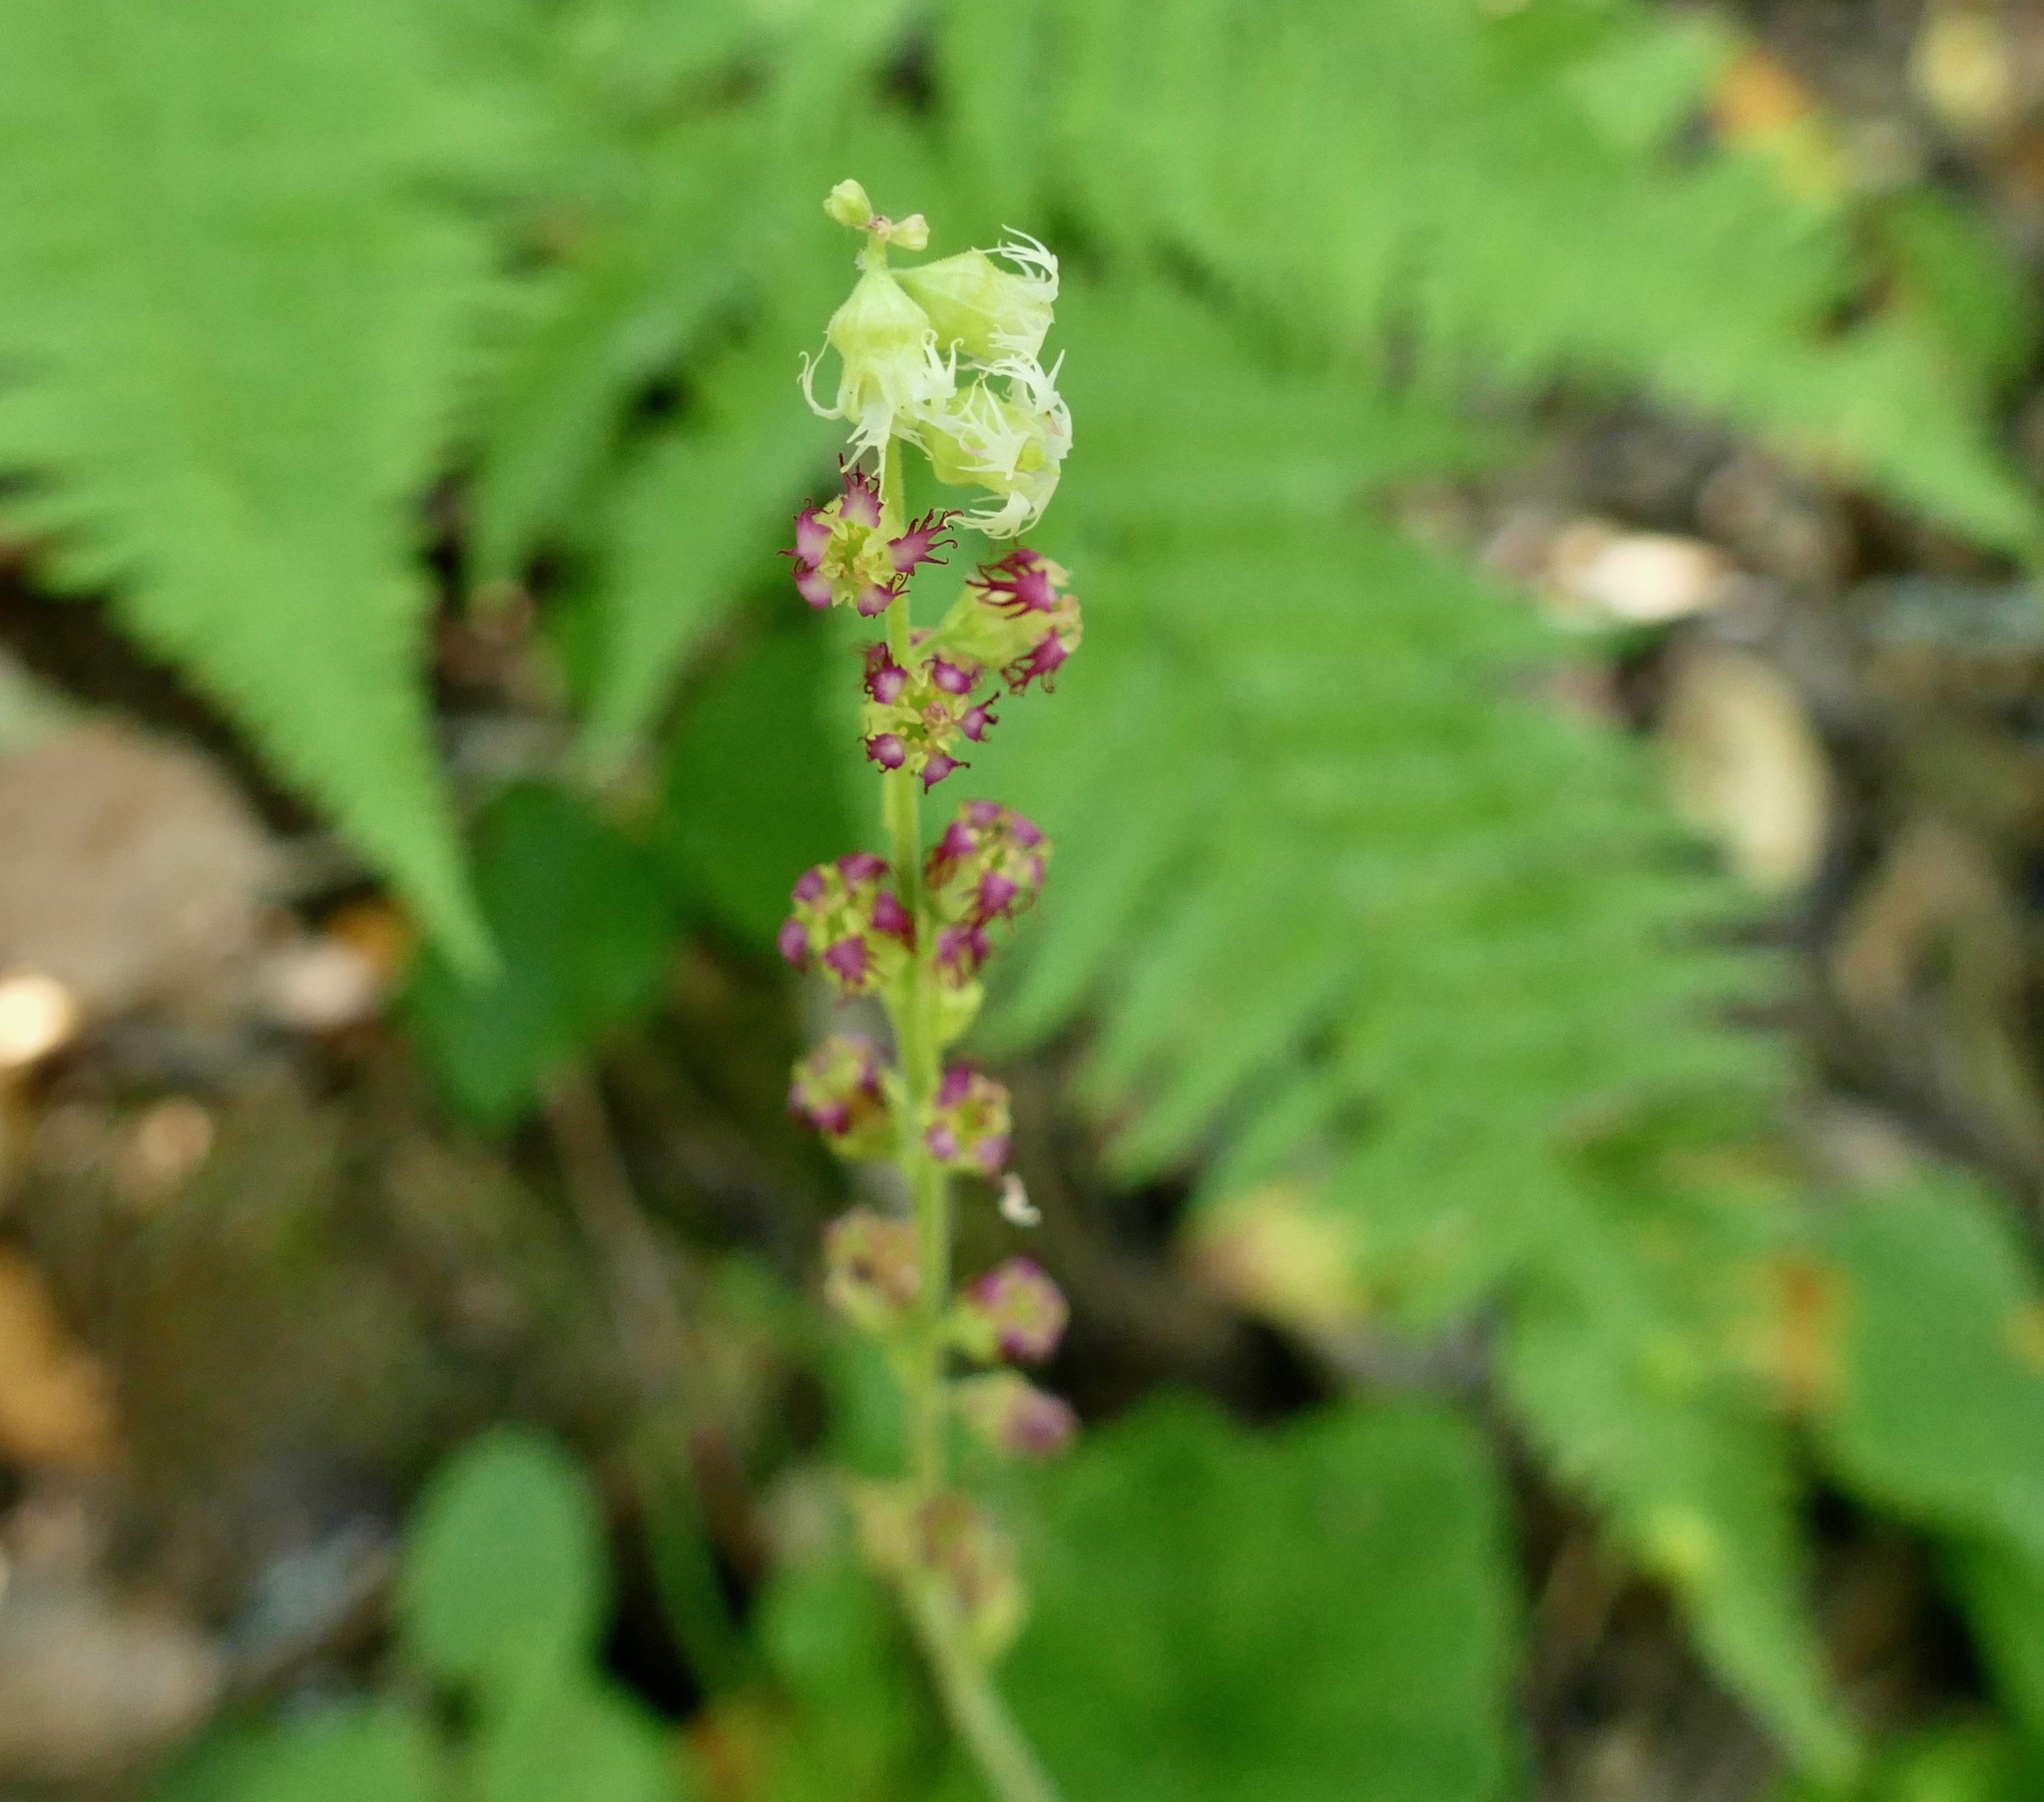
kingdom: Plantae
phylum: Tracheophyta
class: Magnoliopsida
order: Saxifragales
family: Saxifragaceae
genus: Tellima
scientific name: Tellima grandiflora
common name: Fringecups
